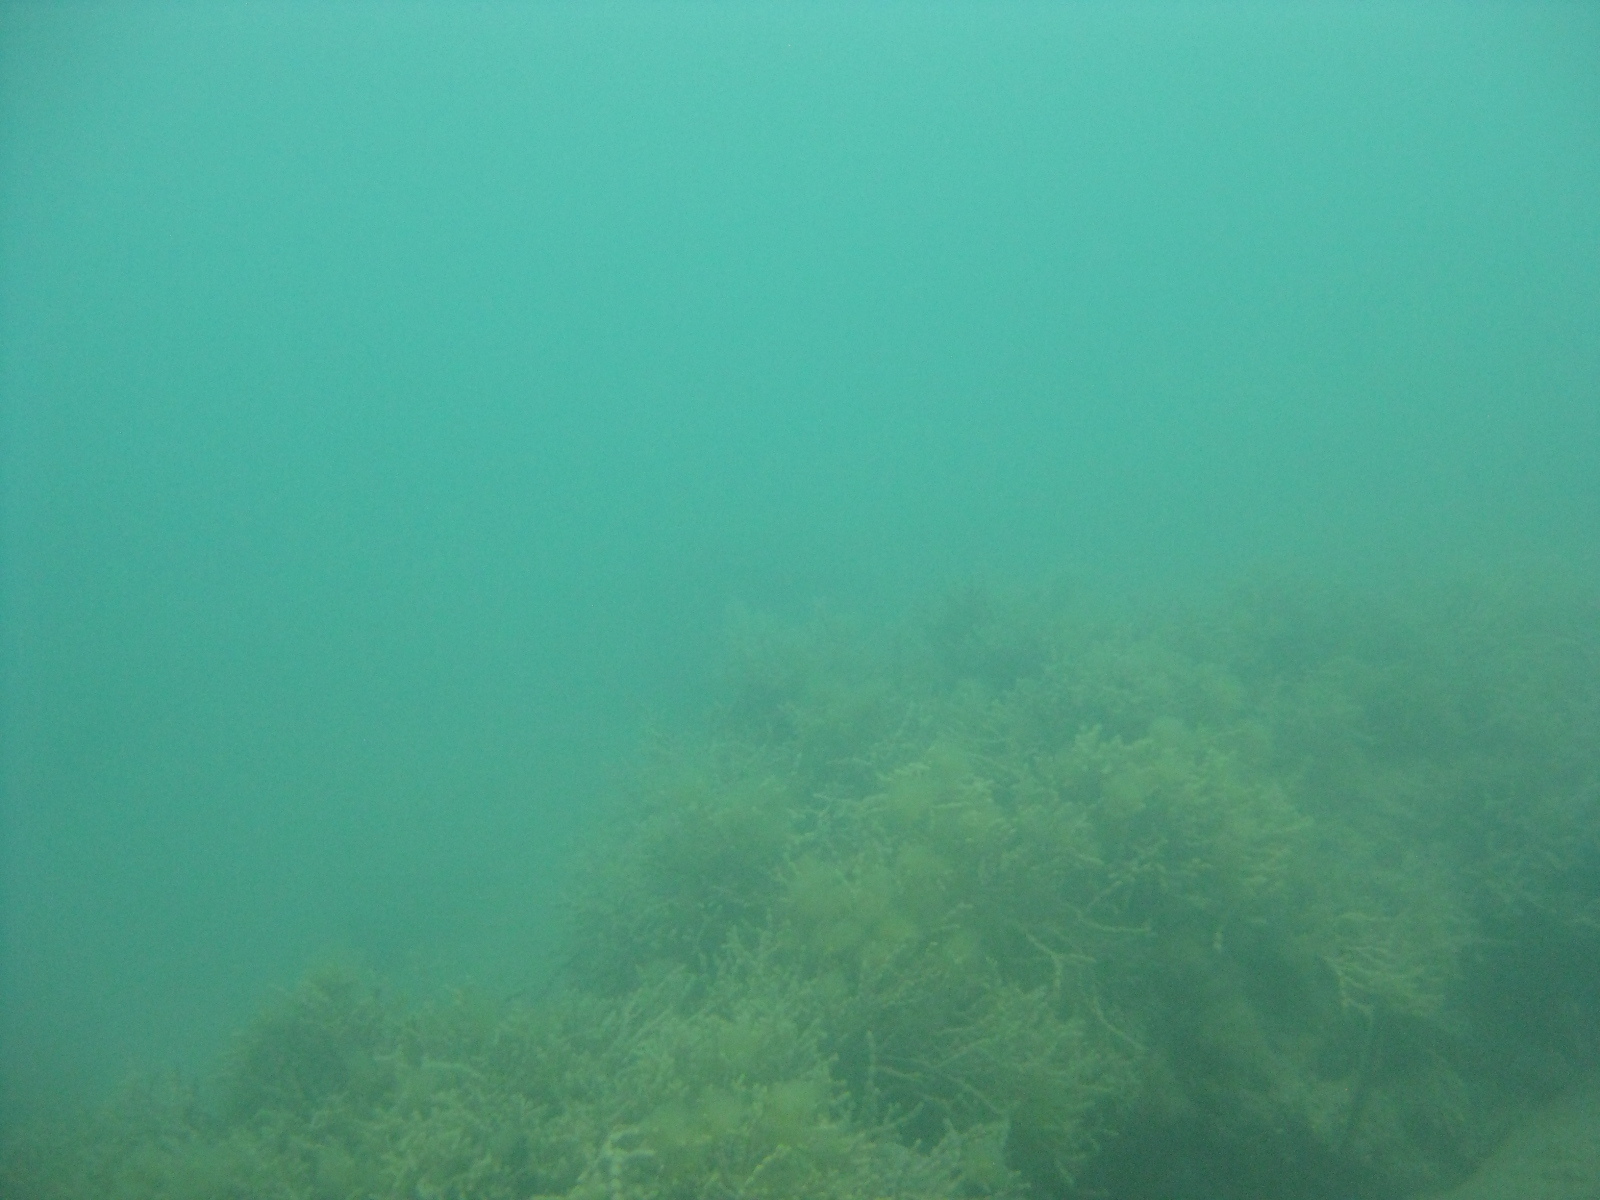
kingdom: Chromista
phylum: Ochrophyta
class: Phaeophyceae
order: Fucales
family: Hormosiraceae
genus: Hormosira
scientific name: Hormosira banksii
